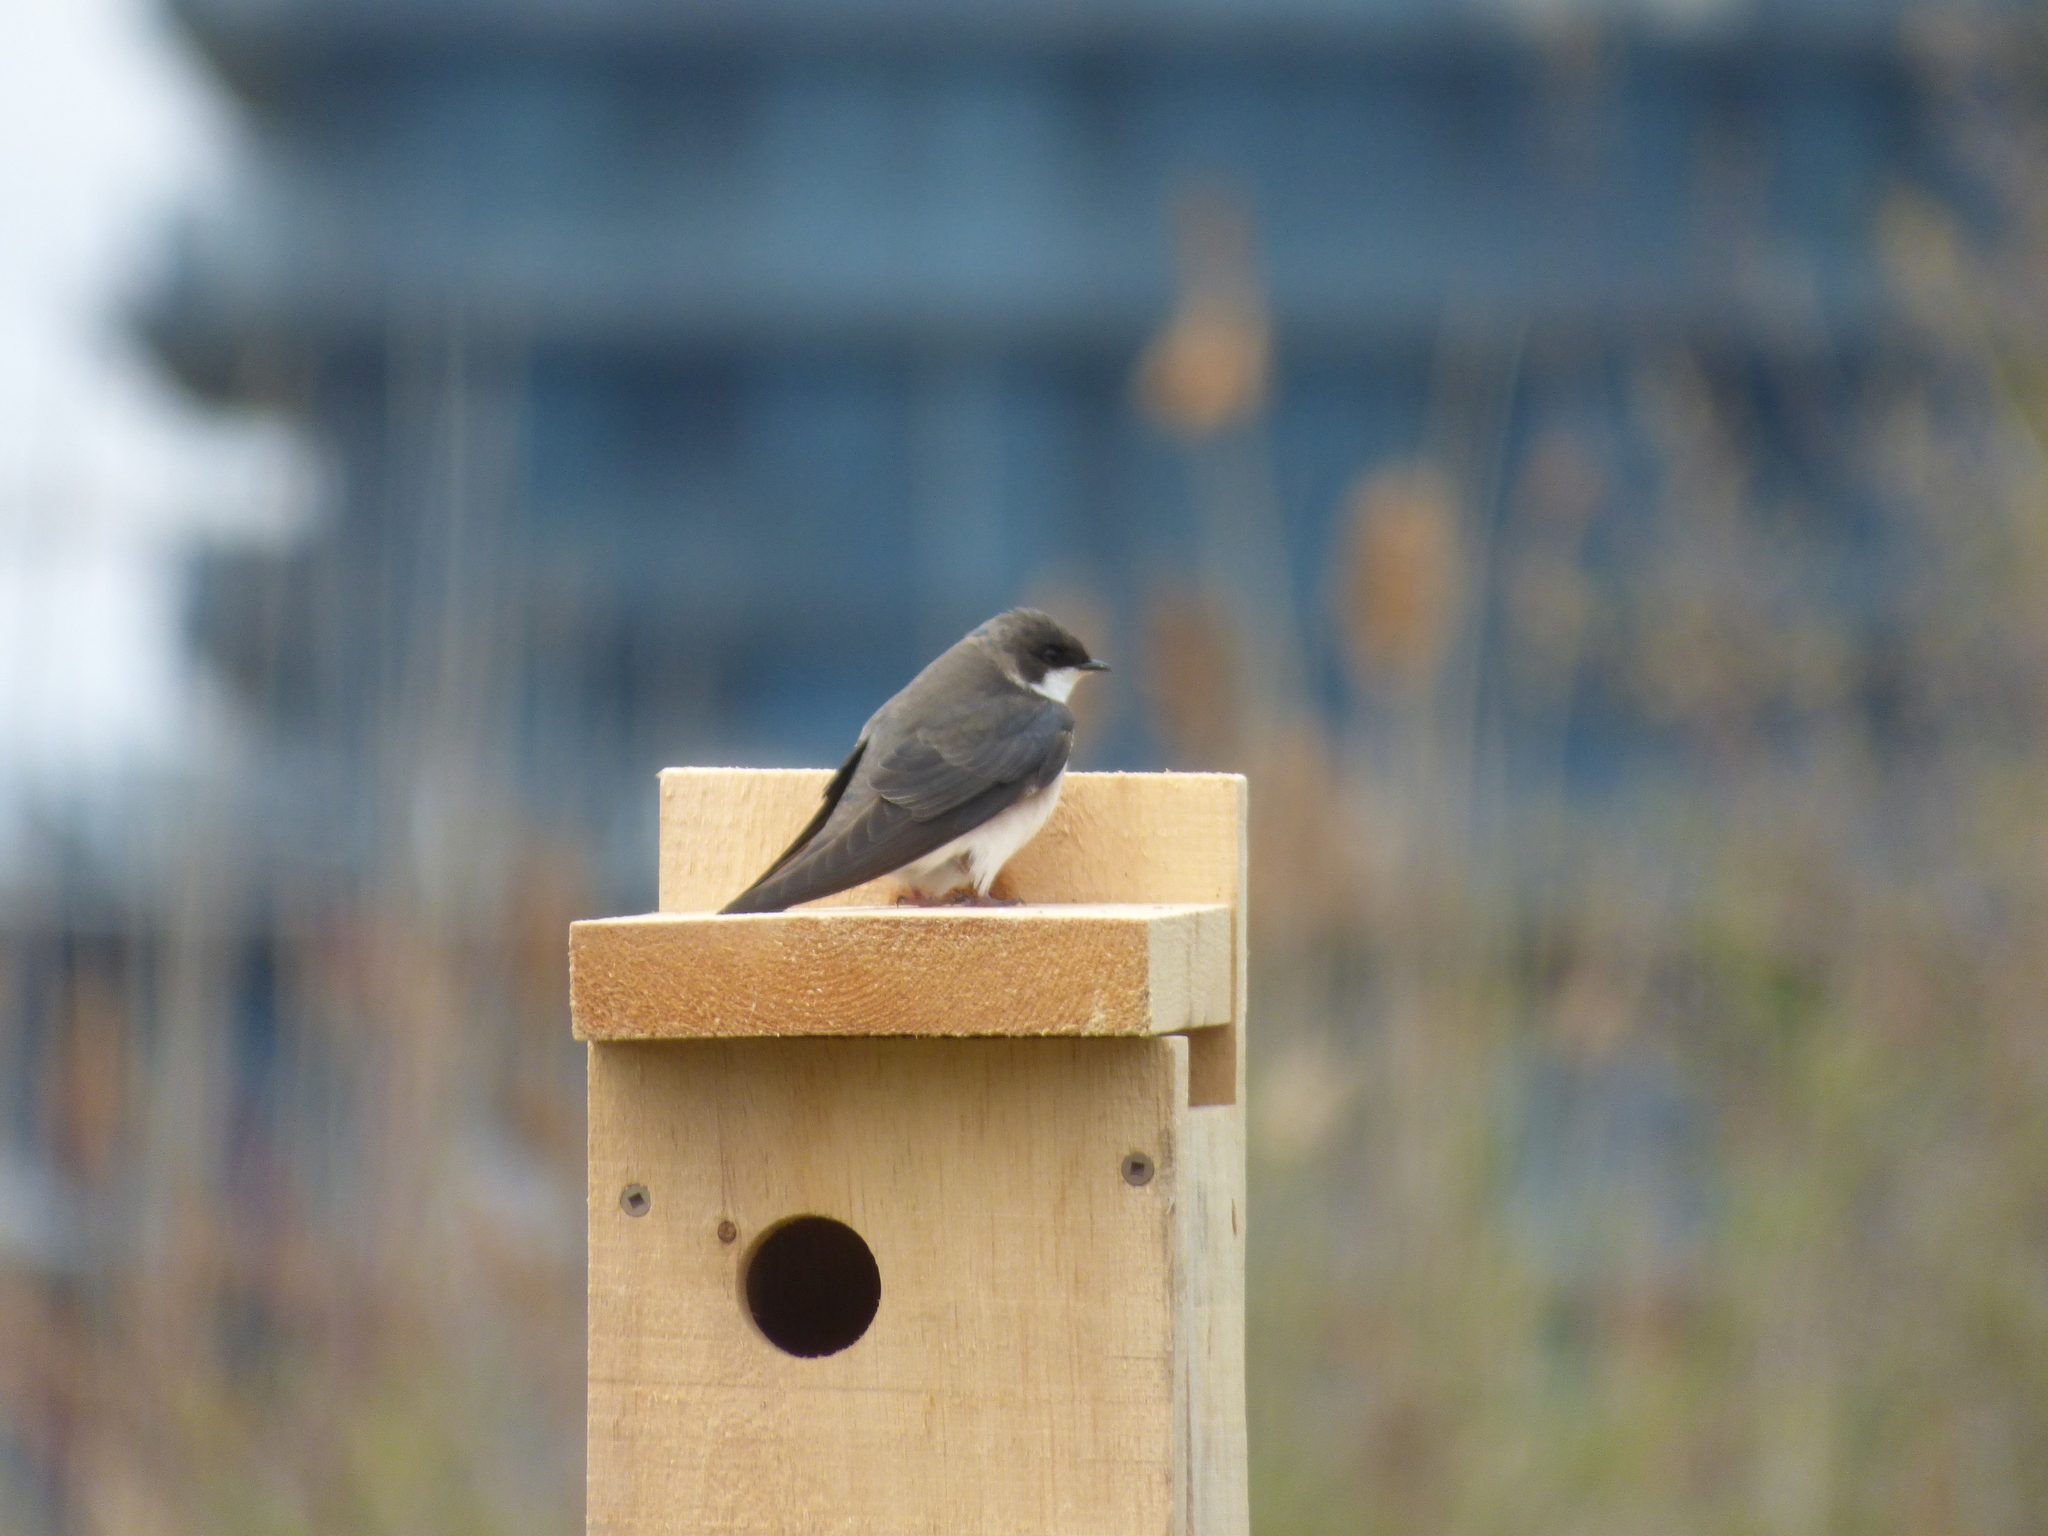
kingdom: Animalia
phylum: Chordata
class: Aves
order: Passeriformes
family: Hirundinidae
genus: Tachycineta
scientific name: Tachycineta bicolor
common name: Tree swallow
